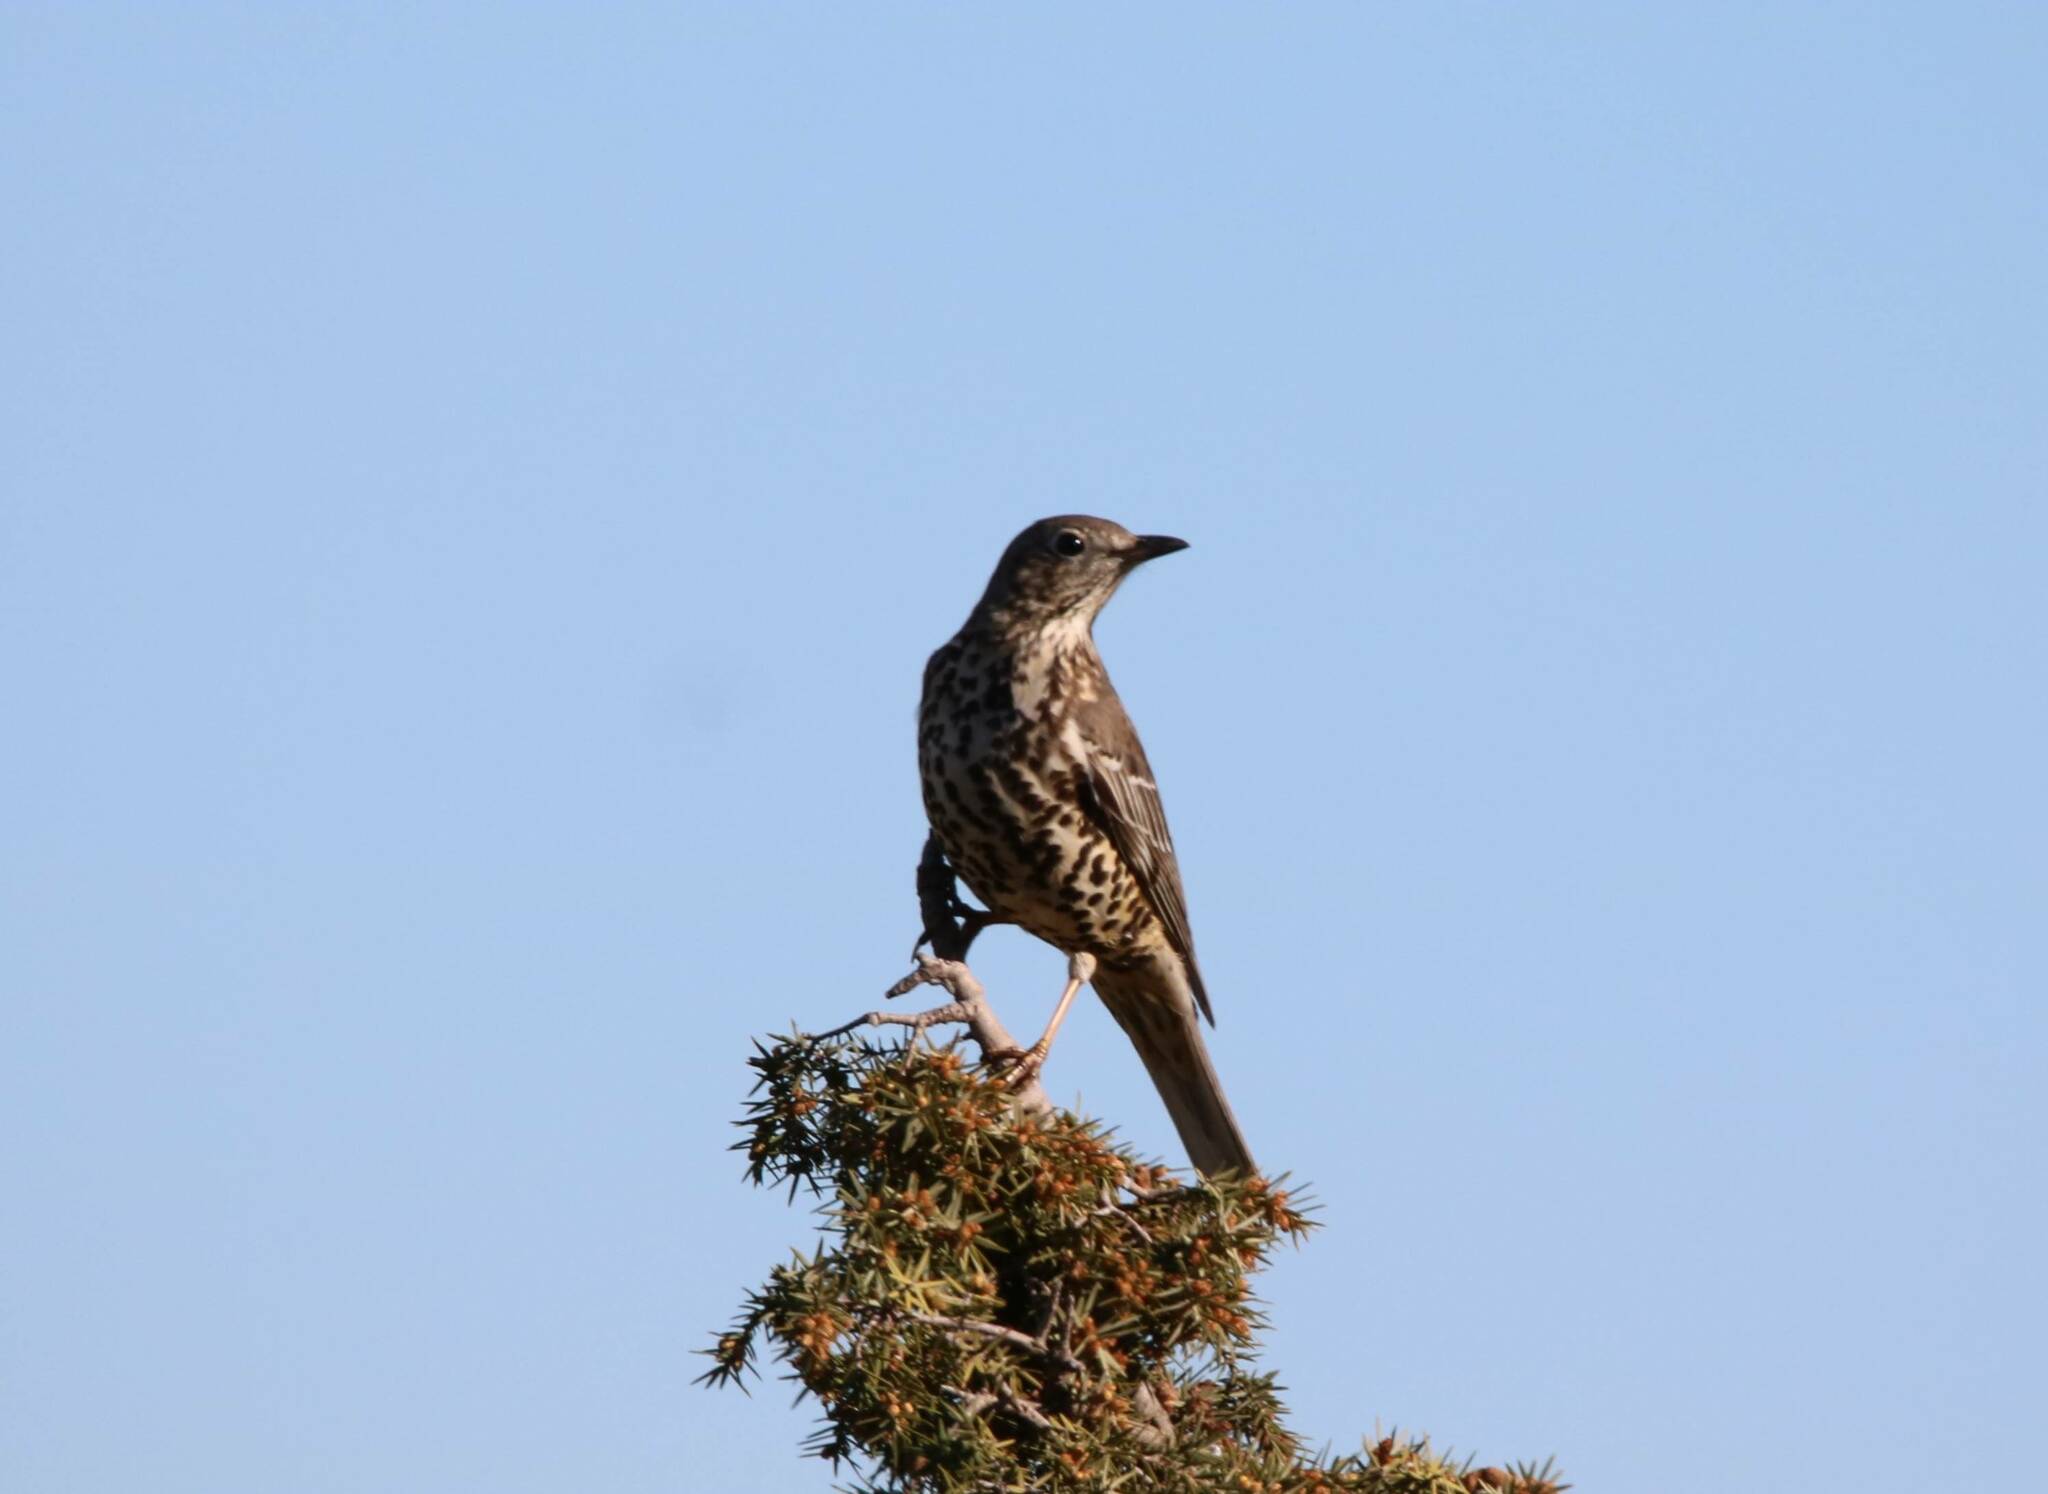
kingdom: Animalia
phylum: Chordata
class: Aves
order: Passeriformes
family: Turdidae
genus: Turdus
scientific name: Turdus viscivorus
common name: Mistle thrush
